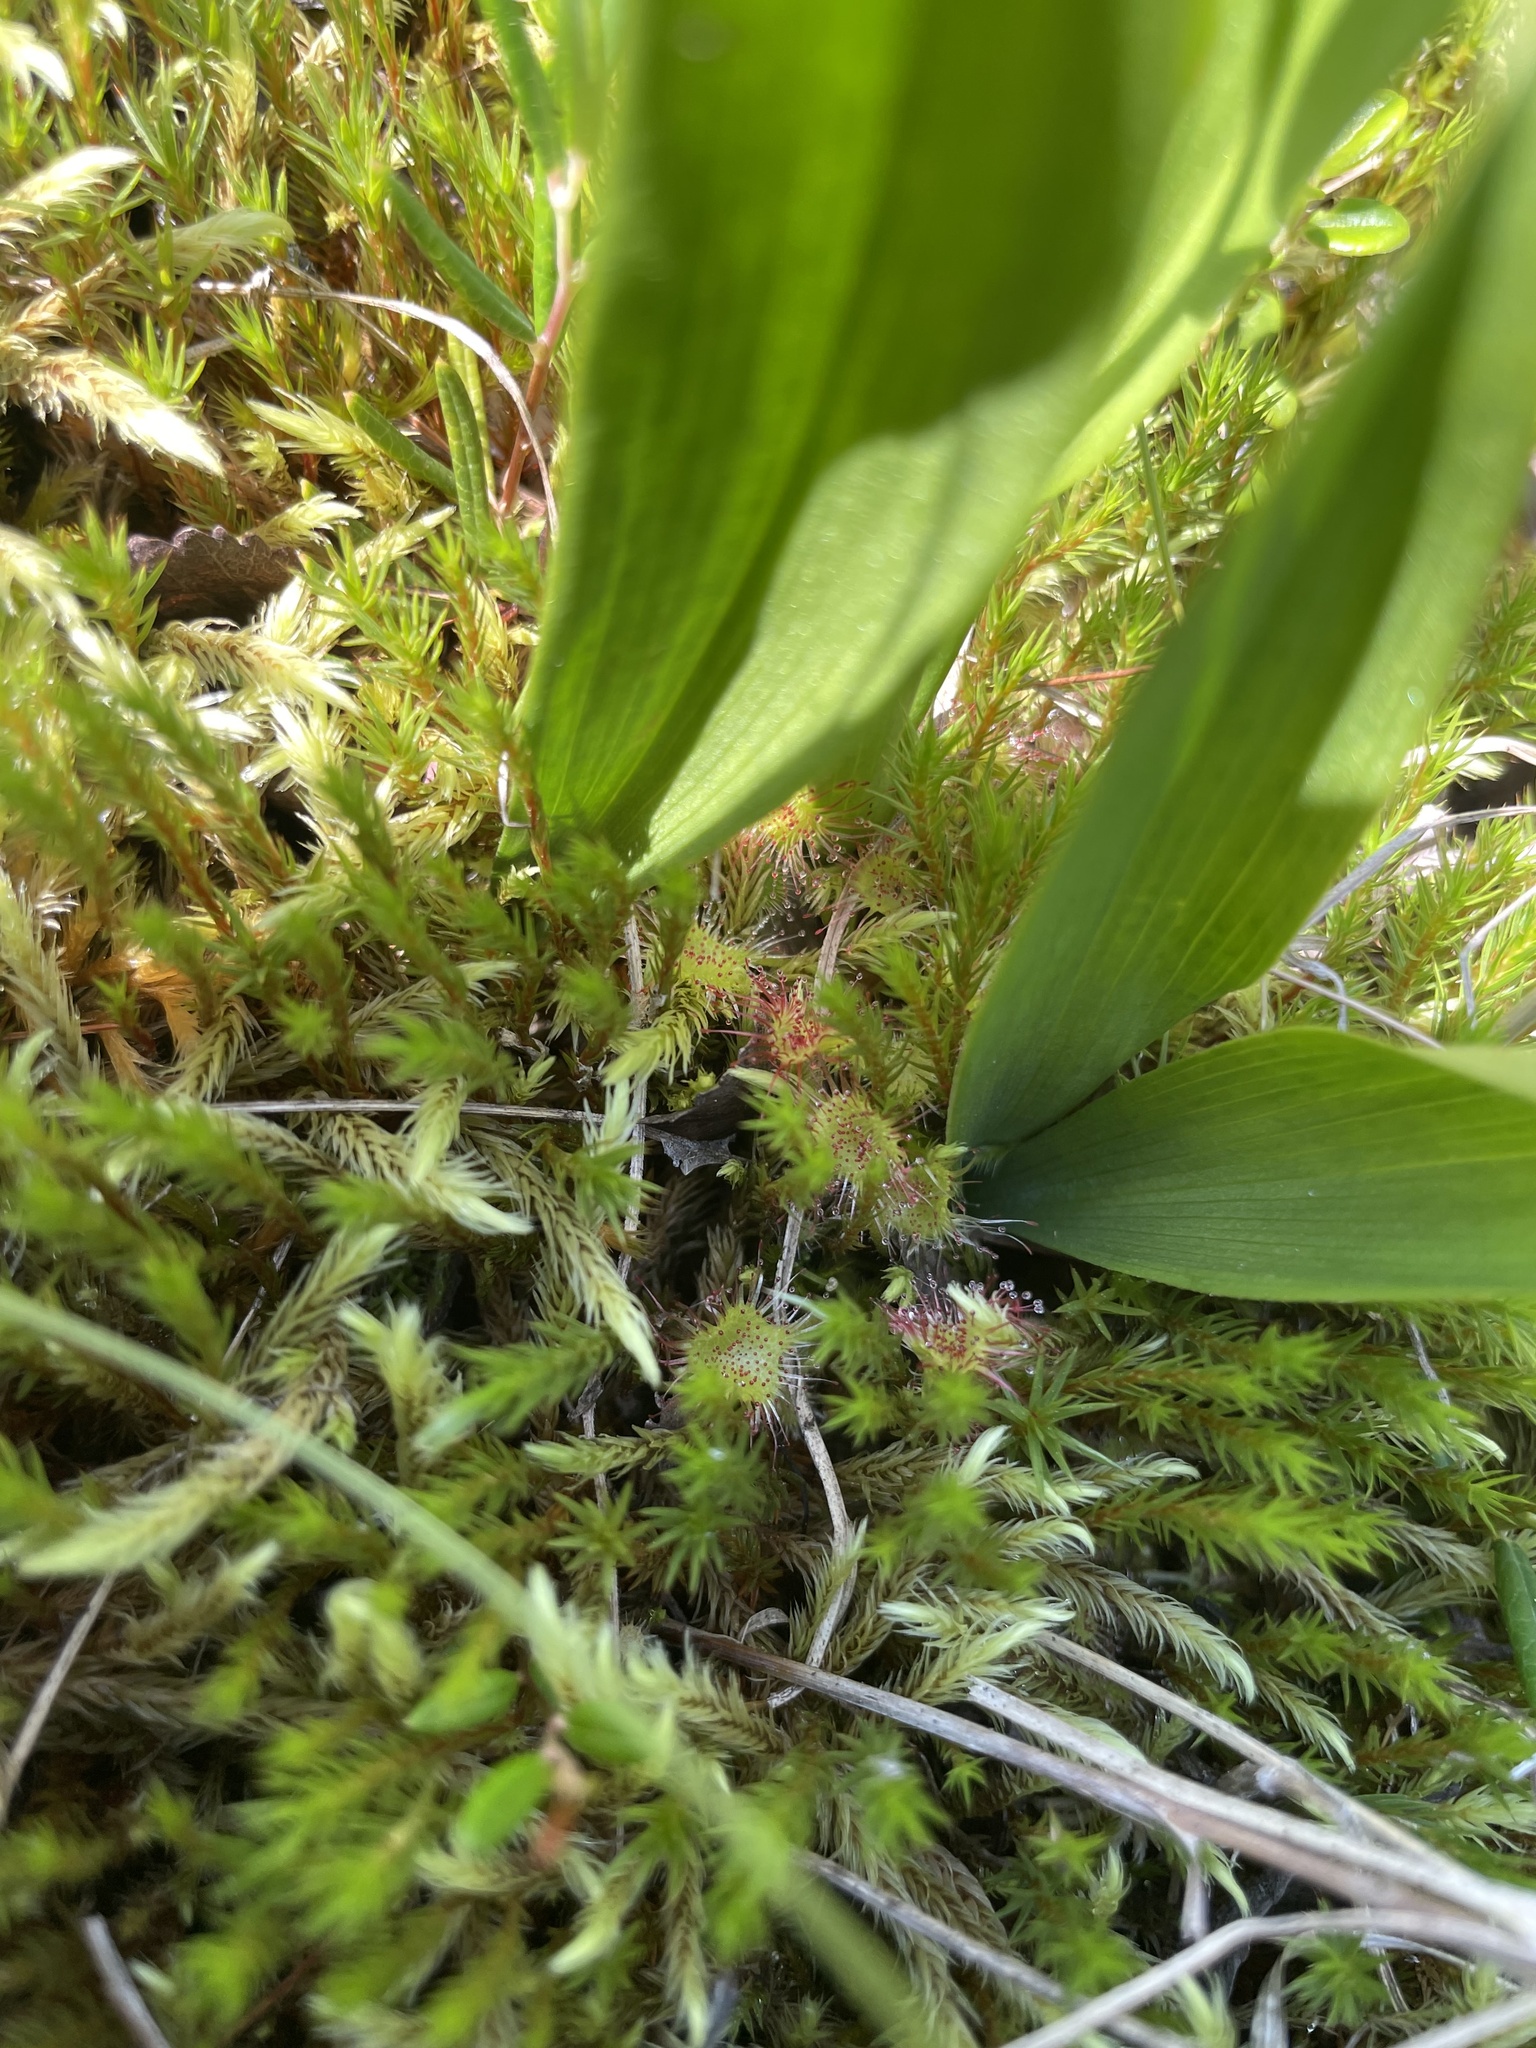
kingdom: Plantae
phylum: Tracheophyta
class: Magnoliopsida
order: Caryophyllales
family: Droseraceae
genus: Drosera
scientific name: Drosera rotundifolia
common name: Round-leaved sundew
